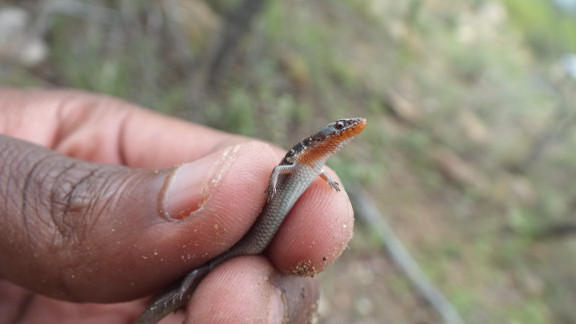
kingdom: Animalia
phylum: Chordata
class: Squamata
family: Scincidae
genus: Panaspis
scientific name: Panaspis maculicollis
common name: Spotted-neck snake-eyed skink
